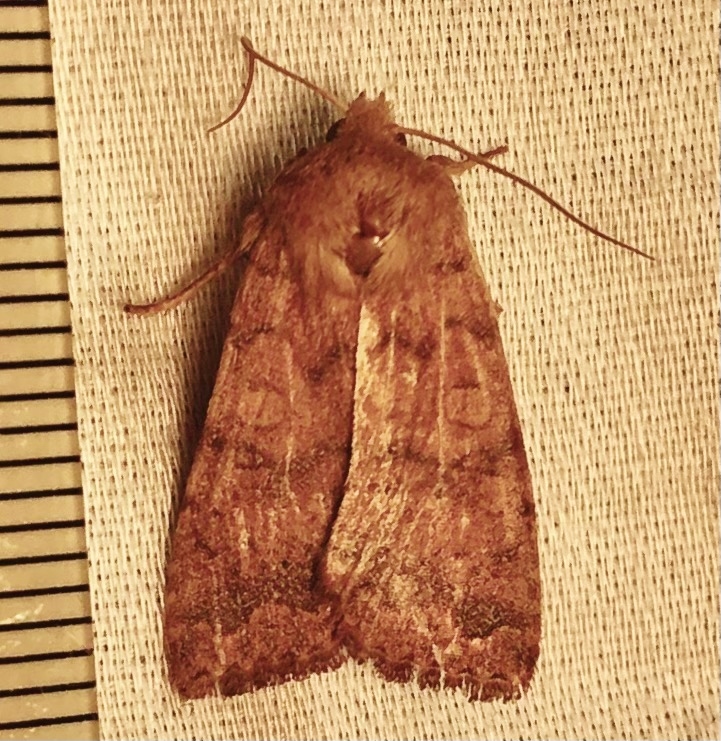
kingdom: Animalia
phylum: Arthropoda
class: Insecta
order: Lepidoptera
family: Noctuidae
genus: Agrochola
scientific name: Agrochola bicolorago
